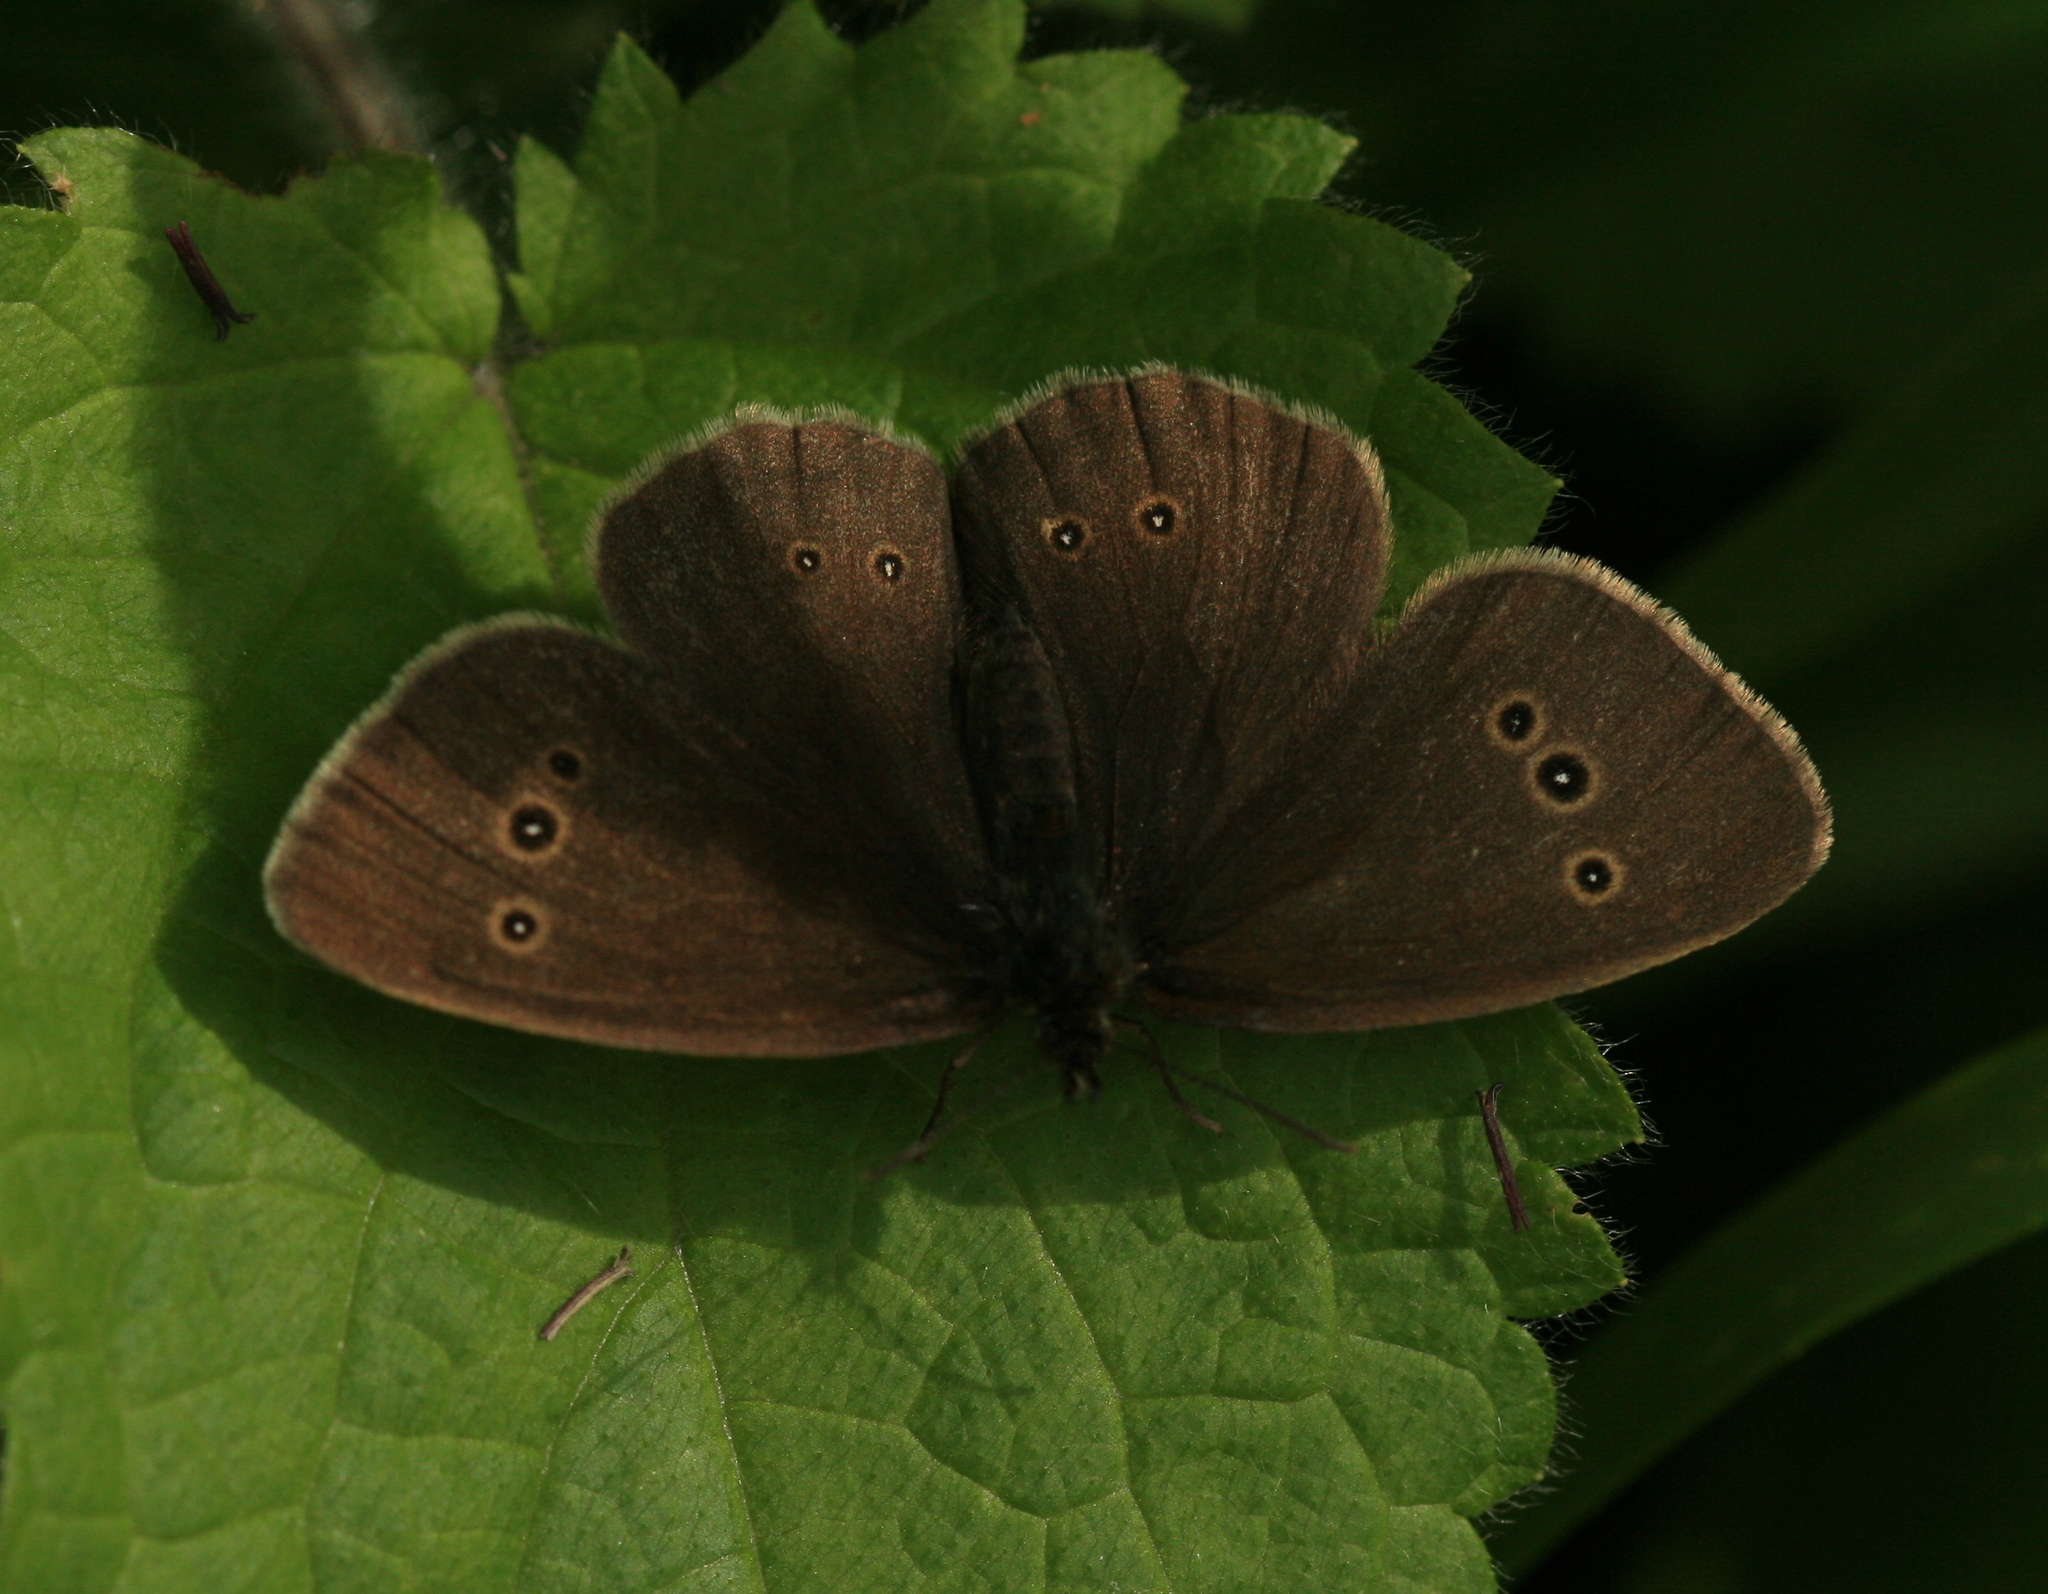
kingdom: Animalia
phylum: Arthropoda
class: Insecta
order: Lepidoptera
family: Nymphalidae
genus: Aphantopus
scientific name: Aphantopus hyperantus
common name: Ringlet
